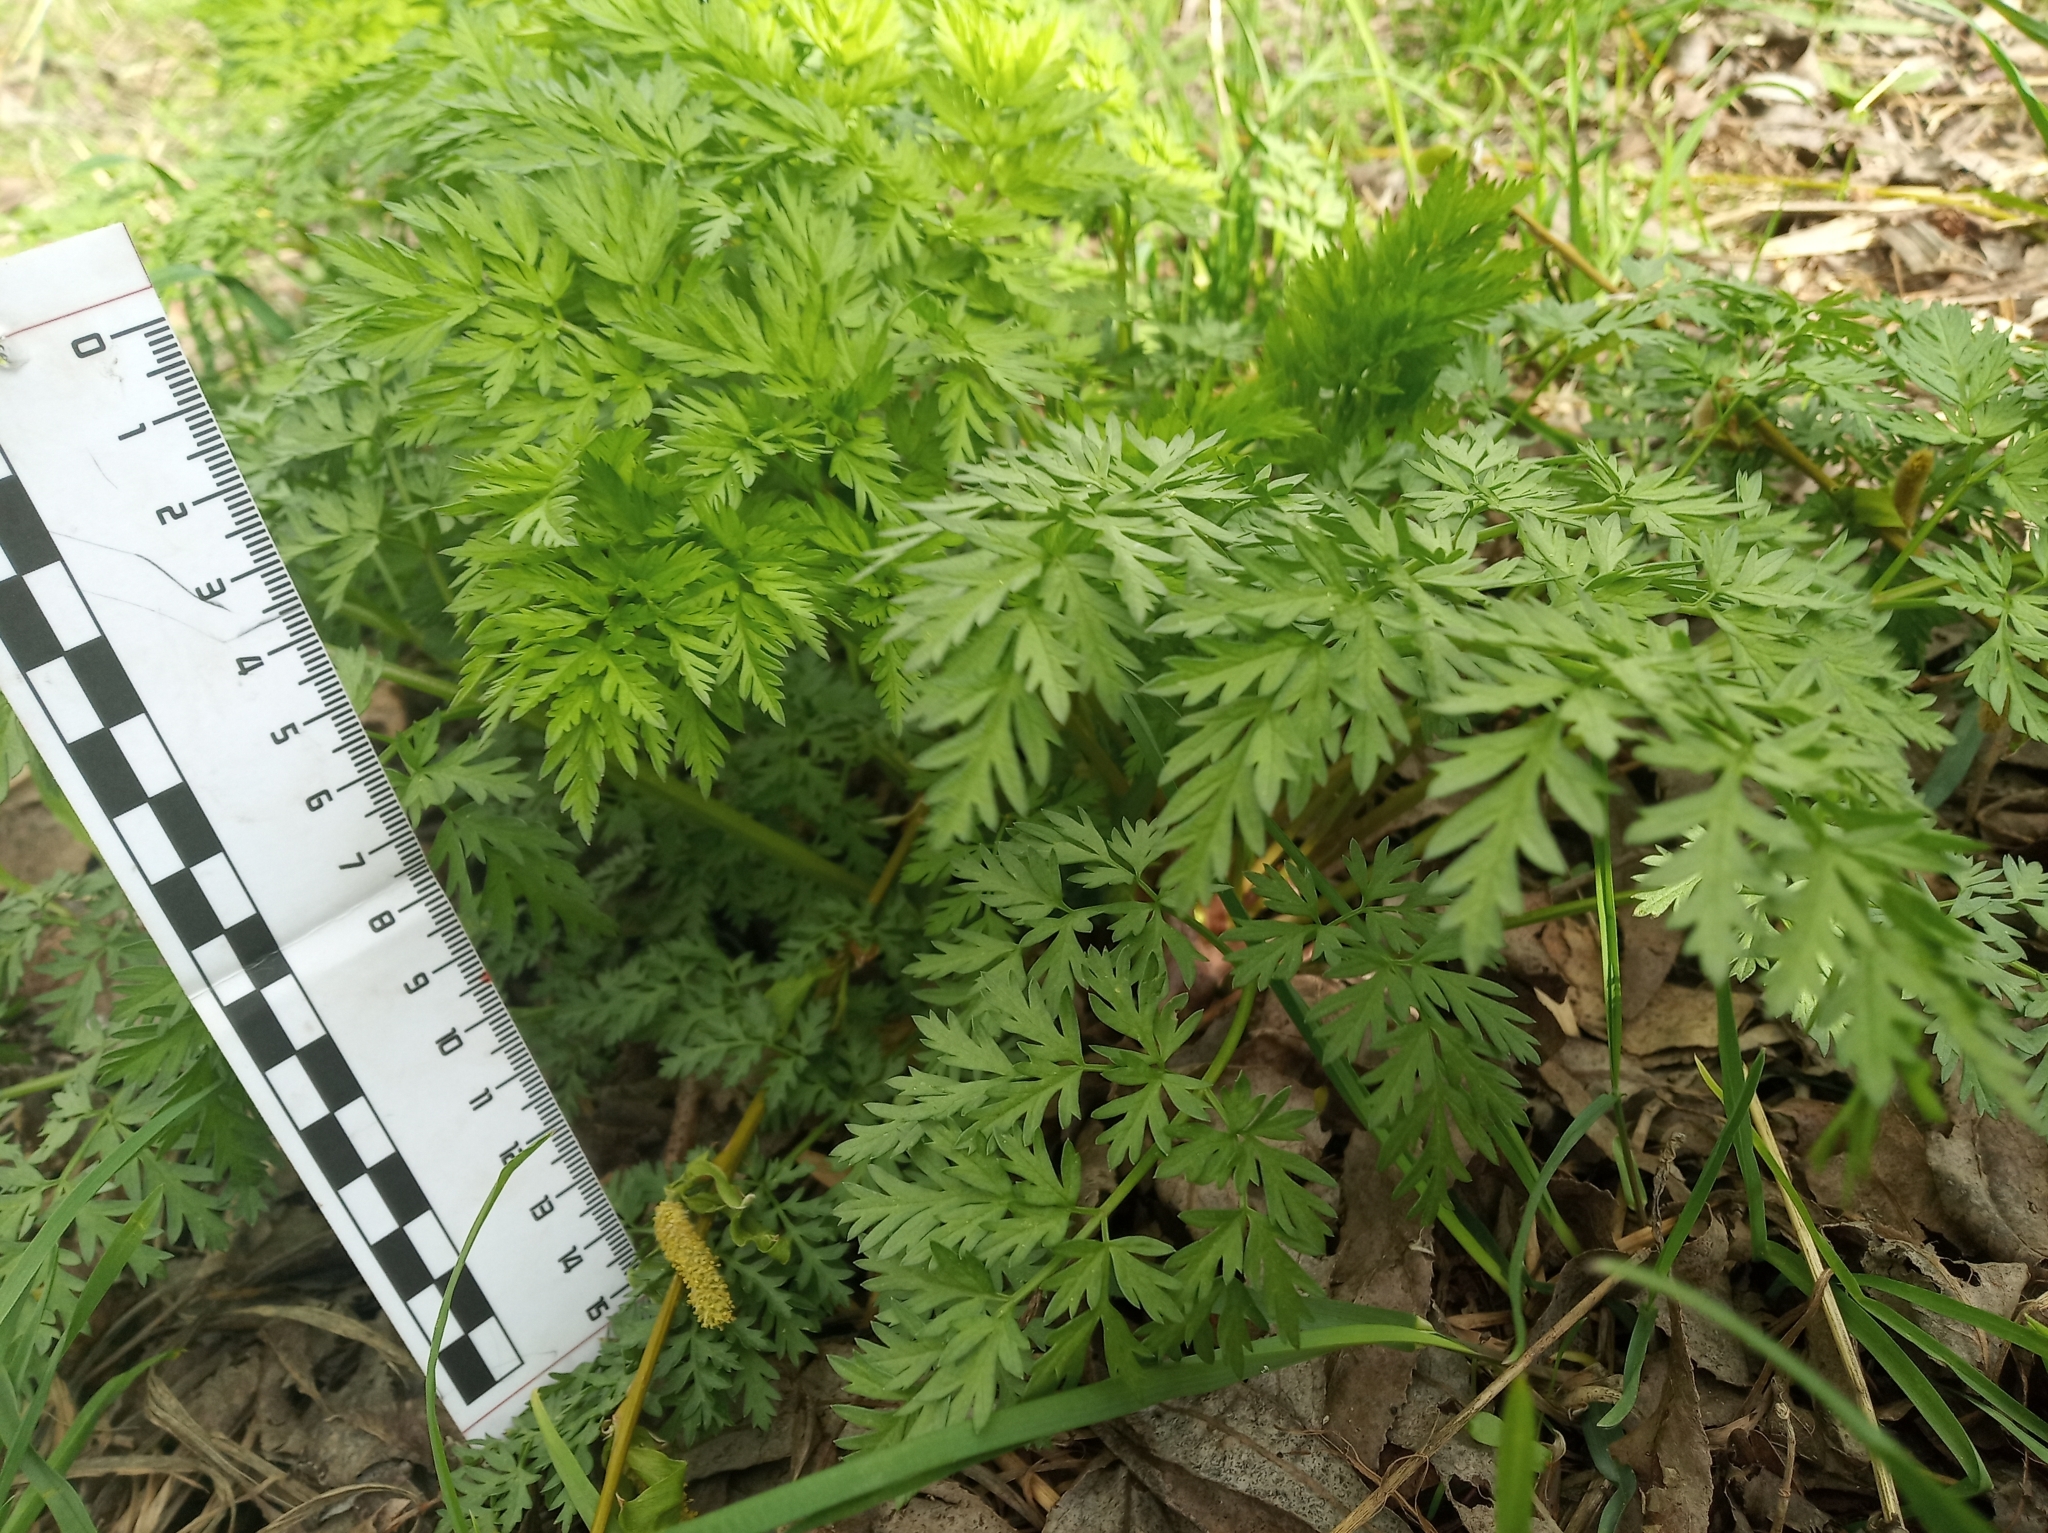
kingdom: Plantae
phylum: Tracheophyta
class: Magnoliopsida
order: Apiales
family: Apiaceae
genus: Anthriscus
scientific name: Anthriscus sylvestris
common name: Cow parsley
